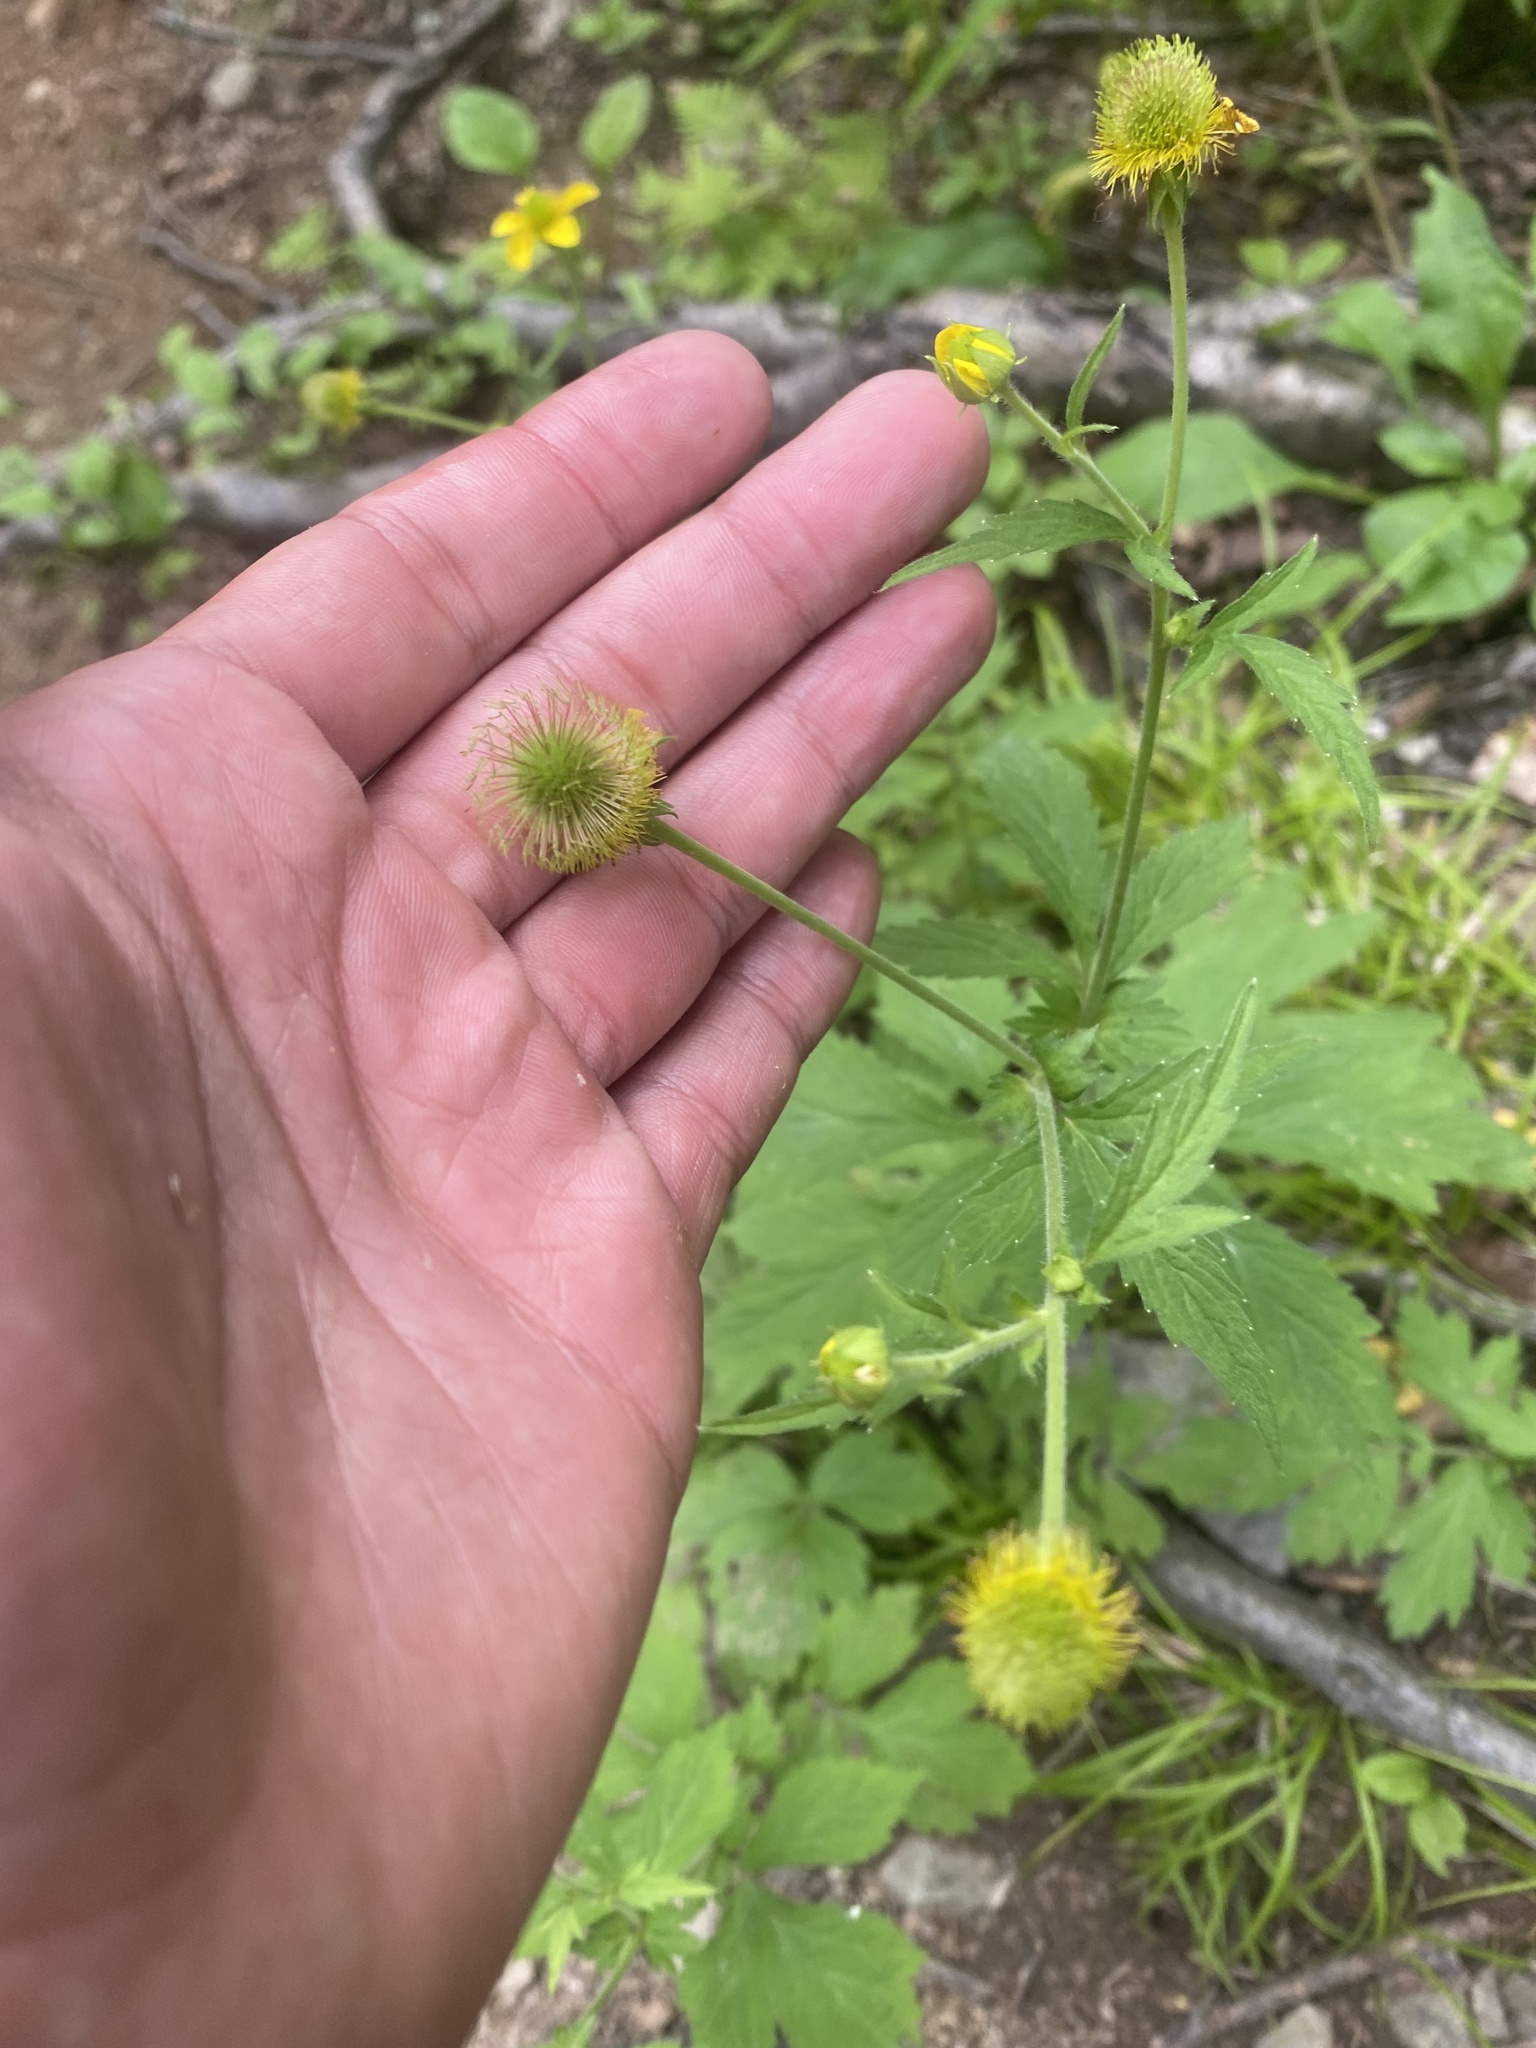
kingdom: Plantae
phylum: Tracheophyta
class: Magnoliopsida
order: Rosales
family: Rosaceae
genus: Geum
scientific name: Geum aleppicum
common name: Yellow avens
